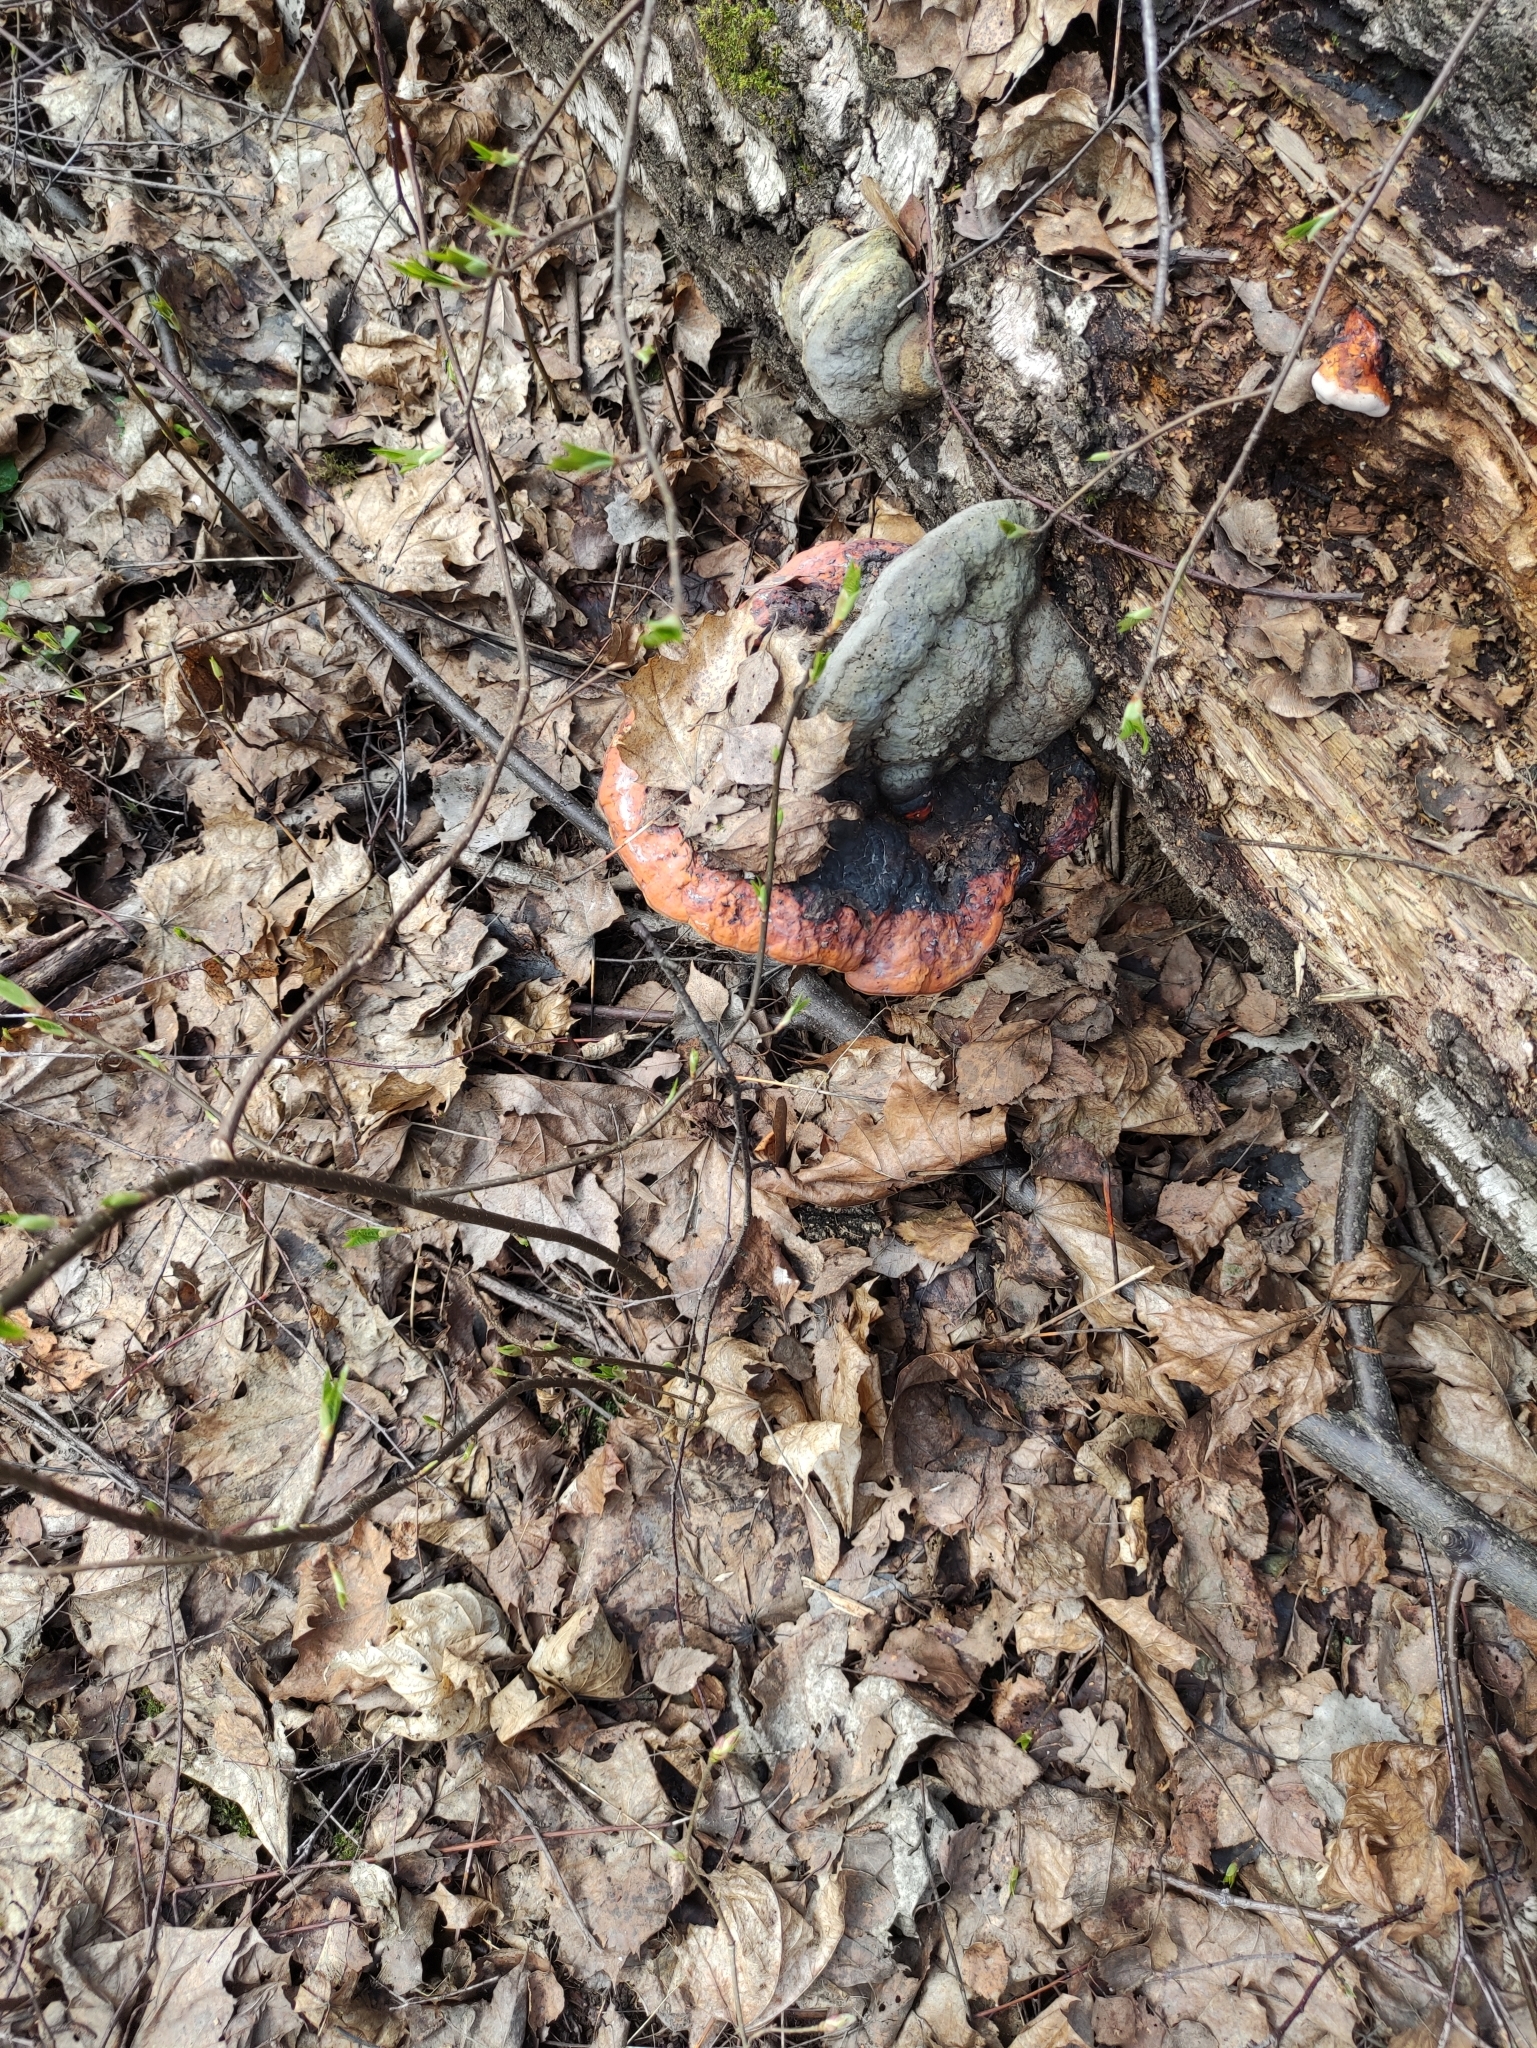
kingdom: Fungi
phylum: Basidiomycota
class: Agaricomycetes
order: Polyporales
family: Fomitopsidaceae
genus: Fomitopsis
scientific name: Fomitopsis pinicola
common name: Red-belted bracket
